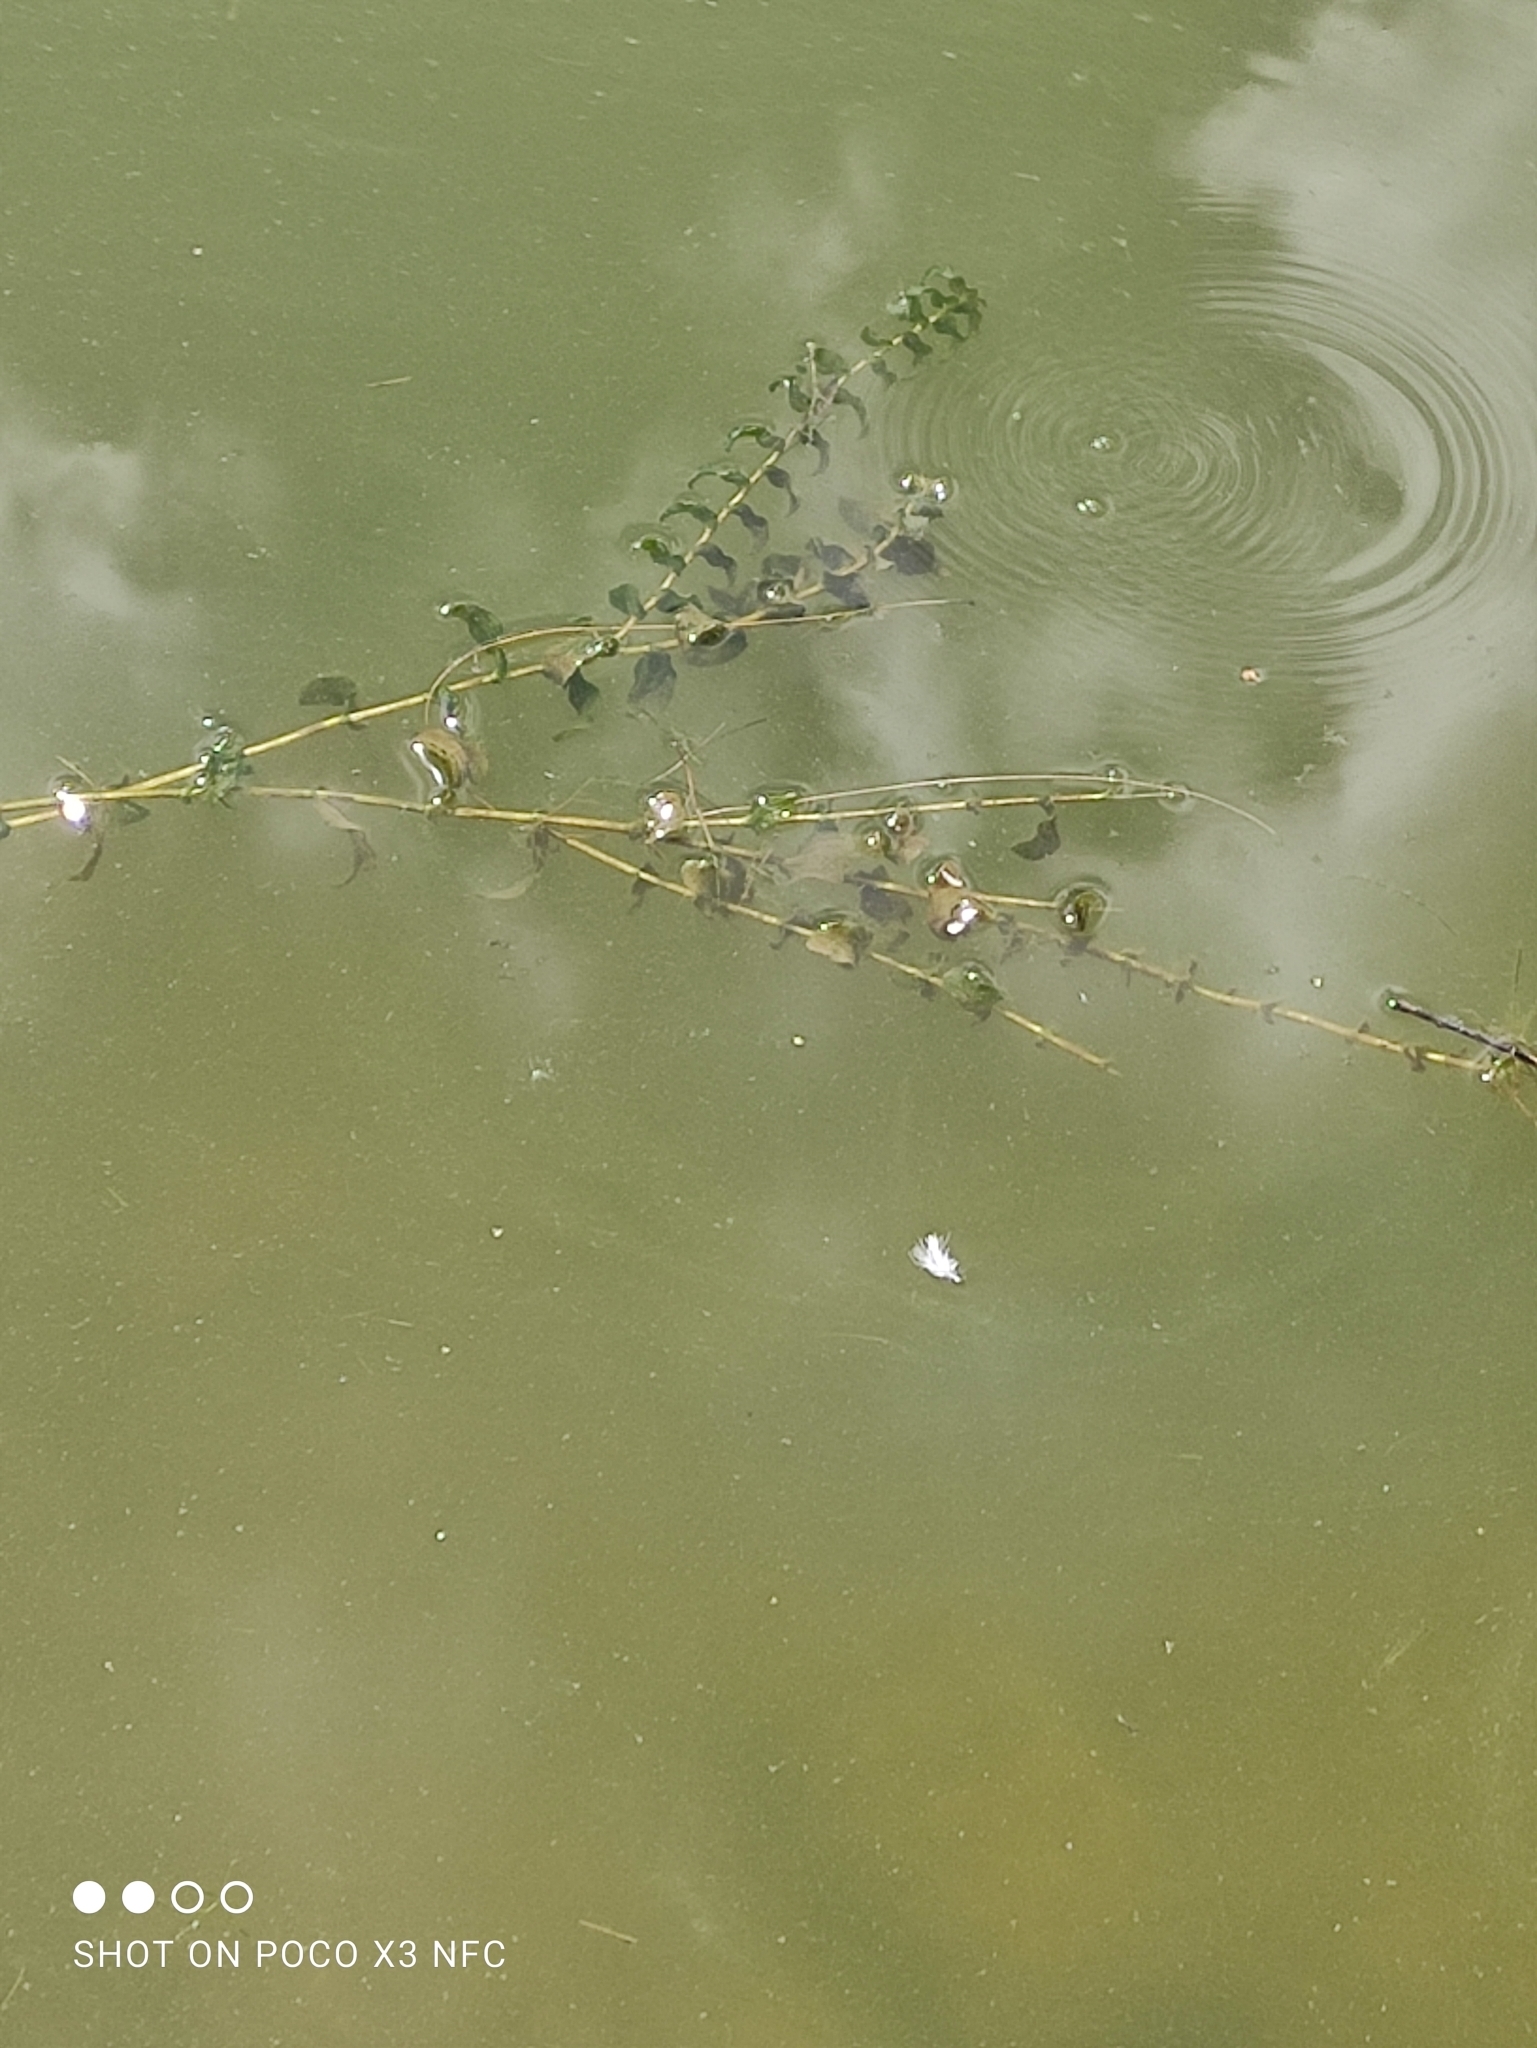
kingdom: Plantae
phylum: Tracheophyta
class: Liliopsida
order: Alismatales
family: Potamogetonaceae
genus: Potamogeton
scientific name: Potamogeton perfoliatus
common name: Perfoliate pondweed
